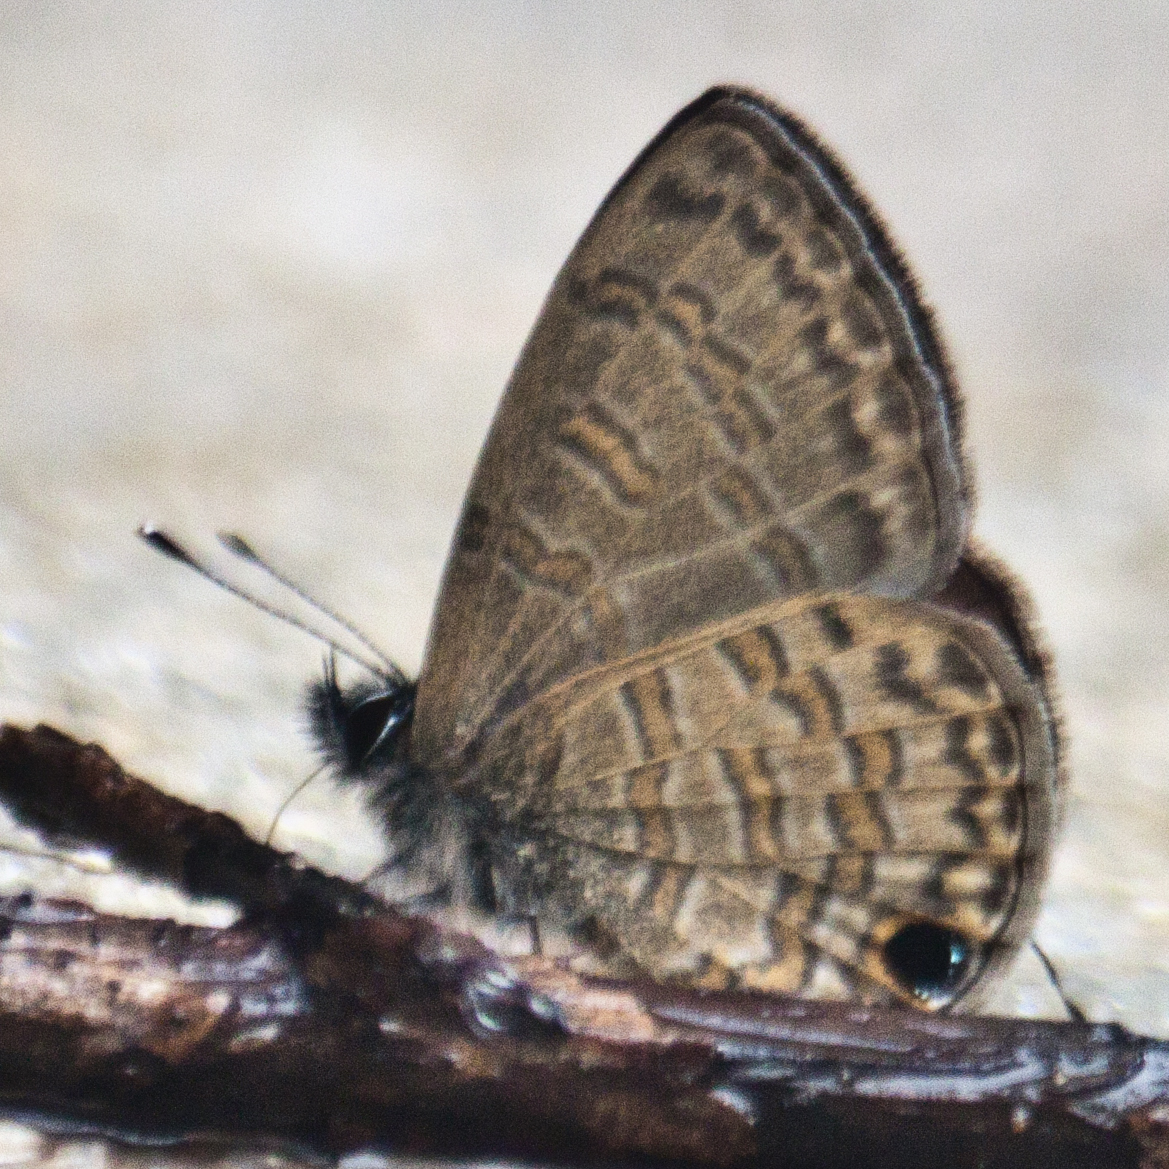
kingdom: Animalia
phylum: Arthropoda
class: Insecta
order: Lepidoptera
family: Lycaenidae
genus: Prosotas
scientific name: Prosotas nora
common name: Common line blue
